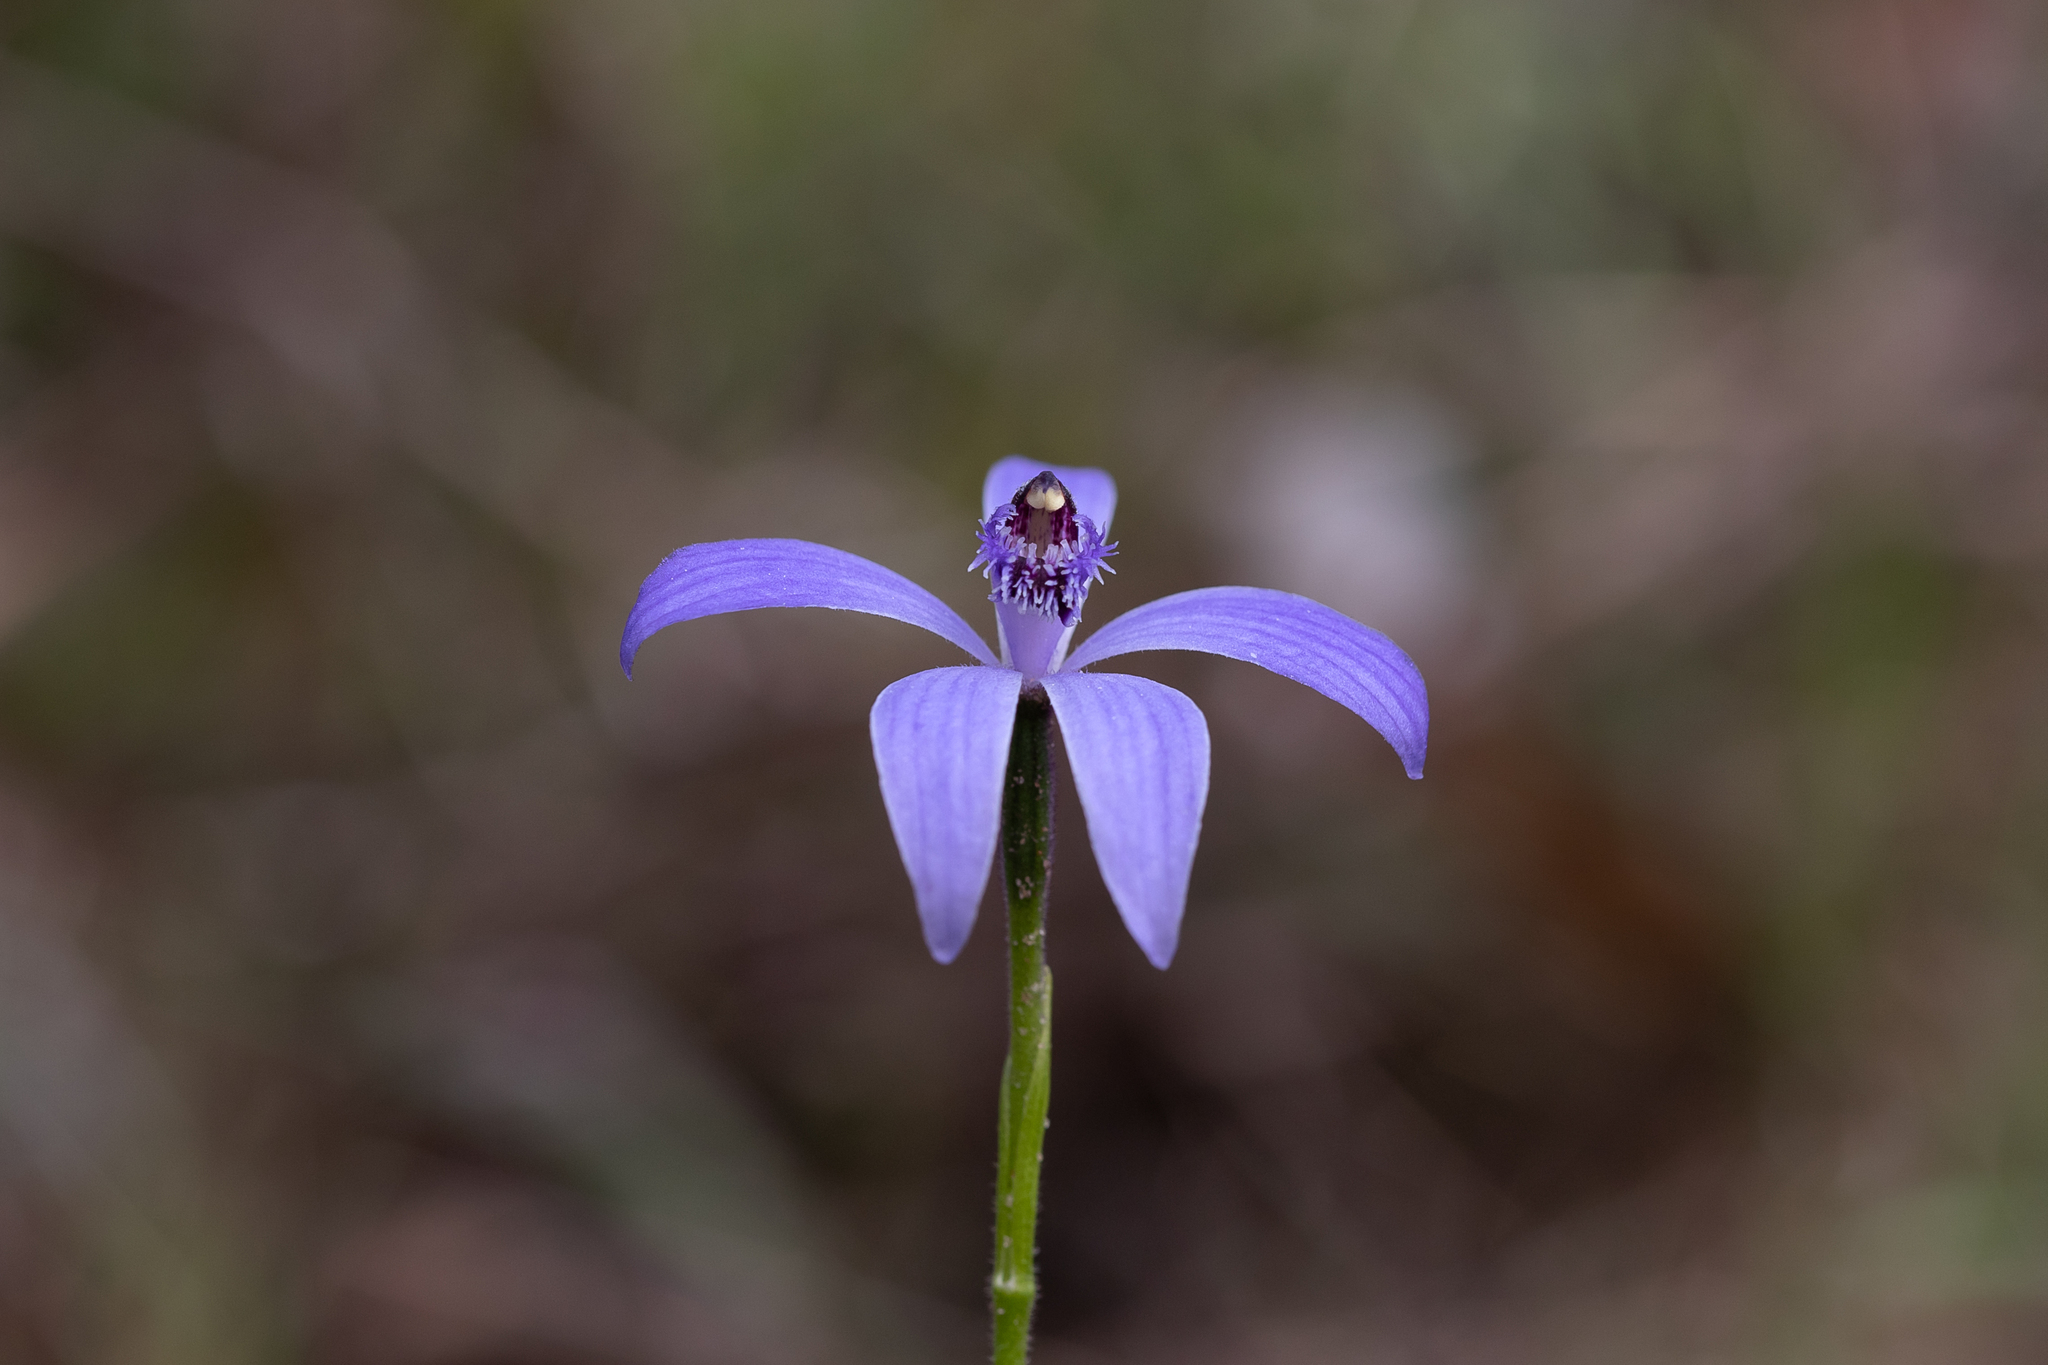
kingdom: Plantae
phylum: Tracheophyta
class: Liliopsida
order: Asparagales
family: Orchidaceae
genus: Pheladenia
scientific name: Pheladenia deformis
